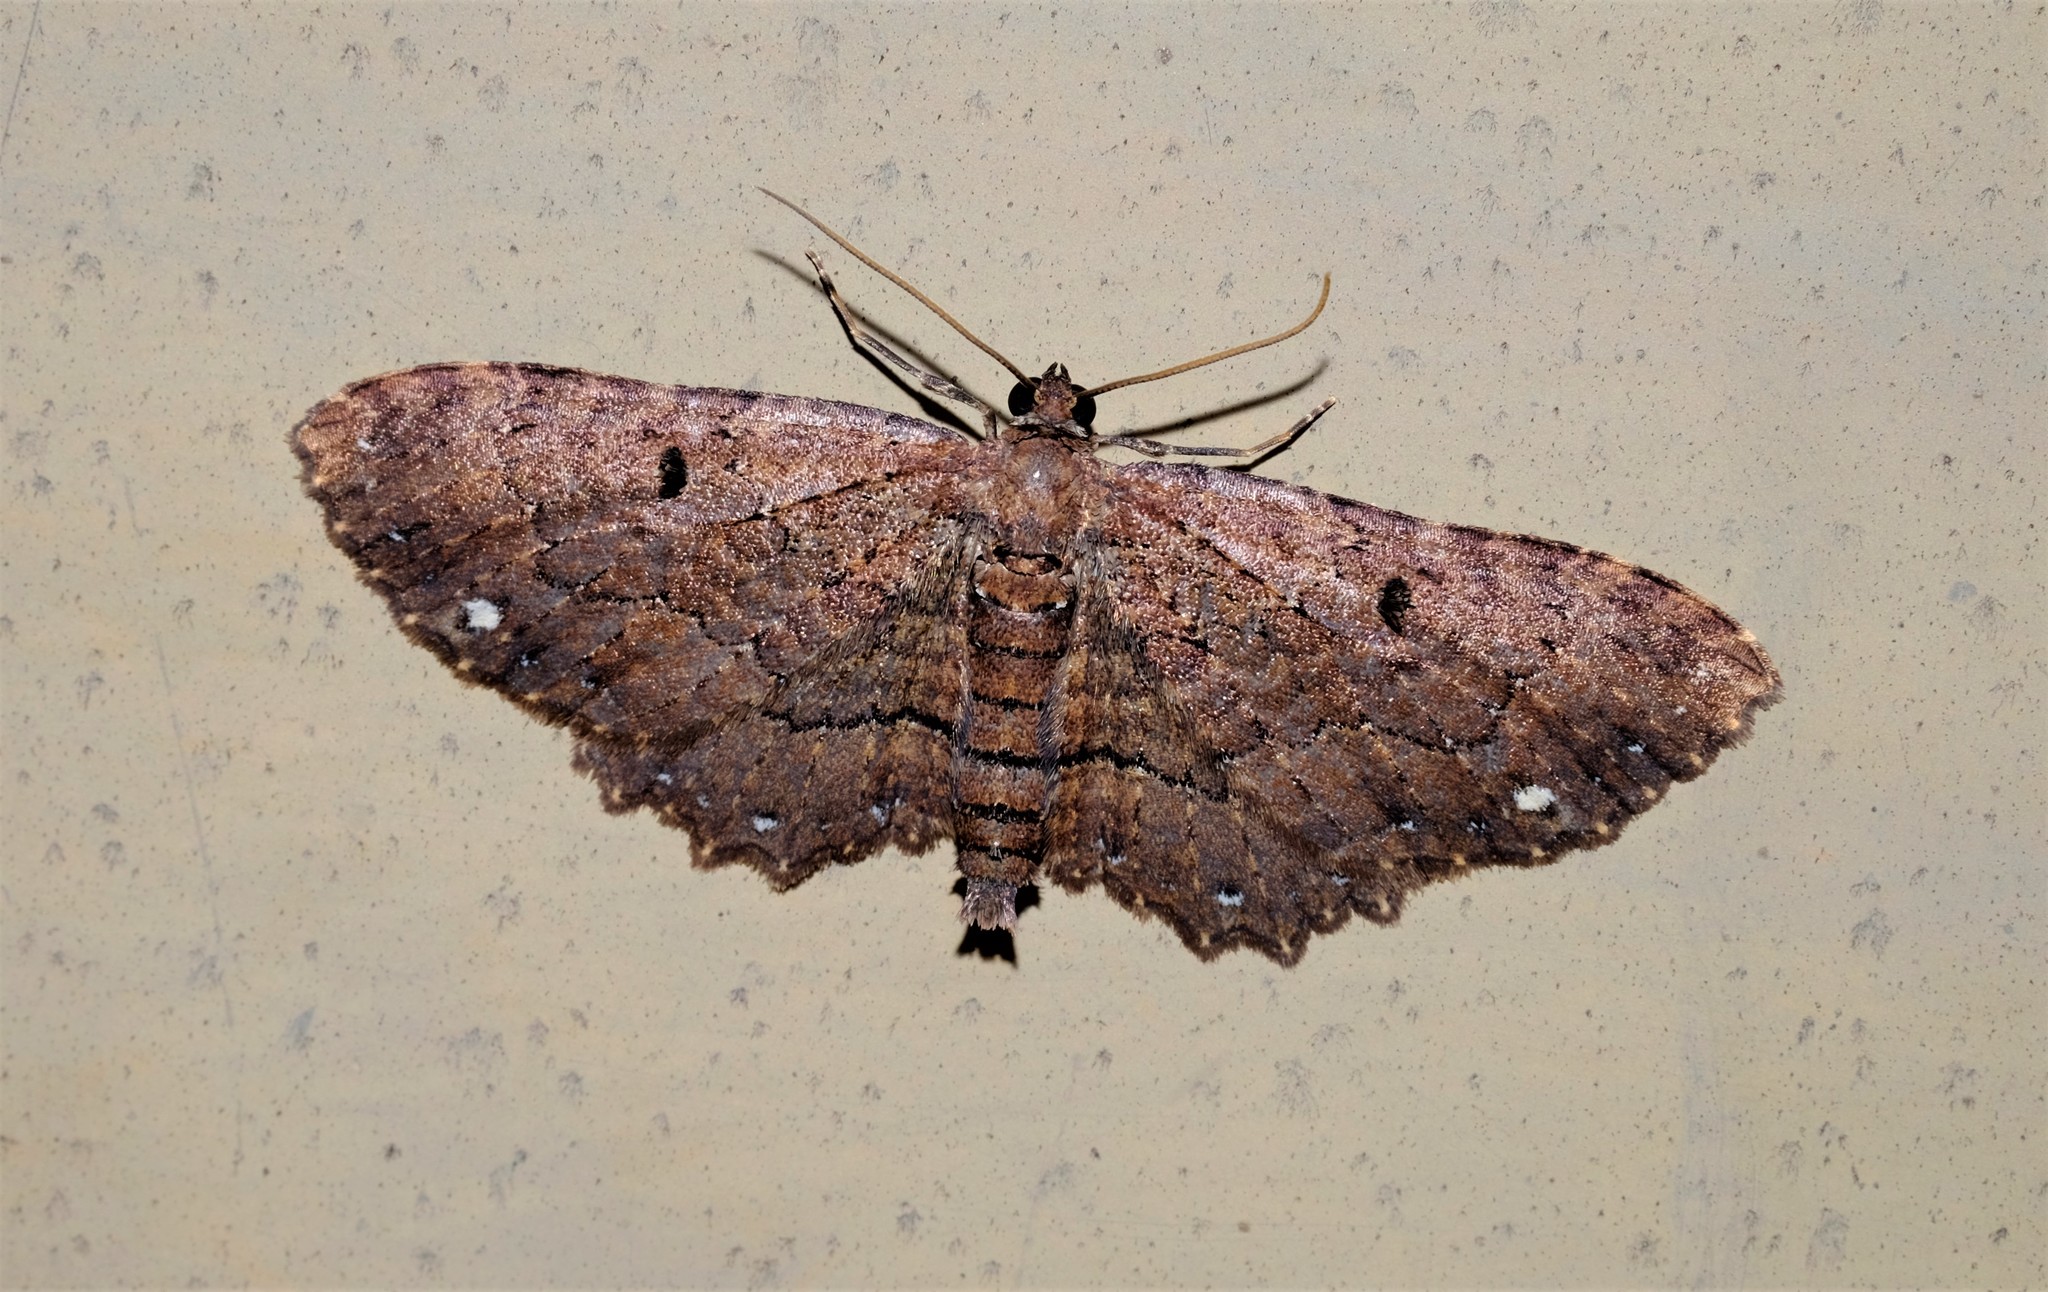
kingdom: Animalia
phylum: Arthropoda
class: Insecta
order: Lepidoptera
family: Geometridae
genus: Eccymatoge
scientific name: Eccymatoge callizona
